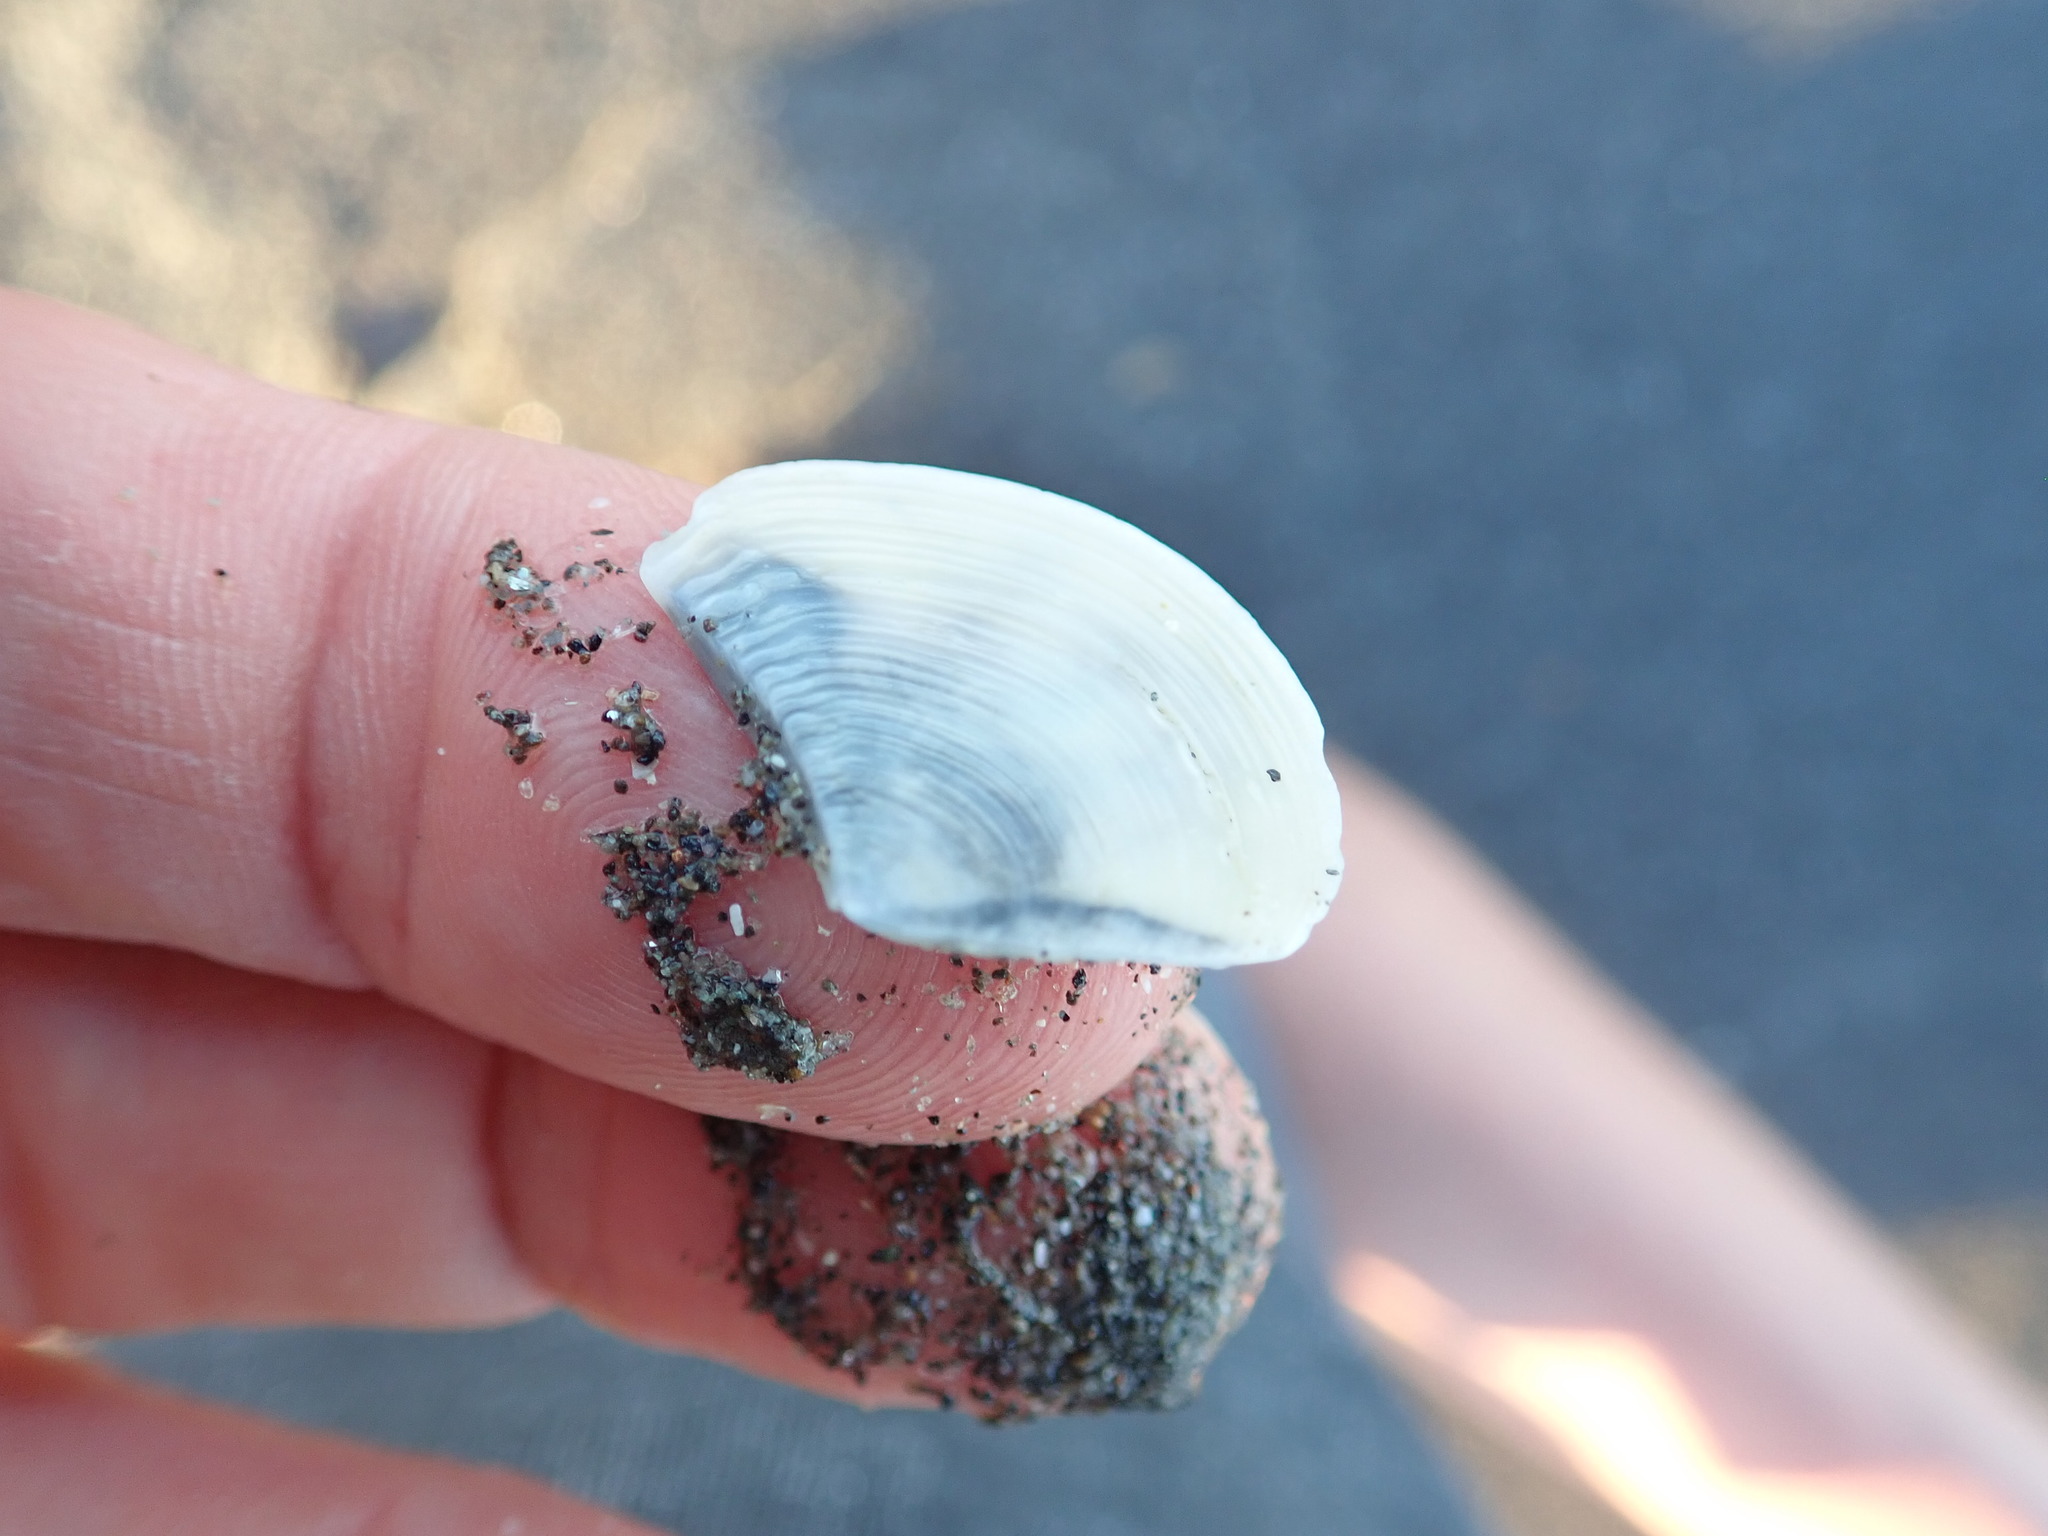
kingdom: Animalia
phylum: Mollusca
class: Bivalvia
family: Myochamidae
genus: Myadora
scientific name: Myadora striata
